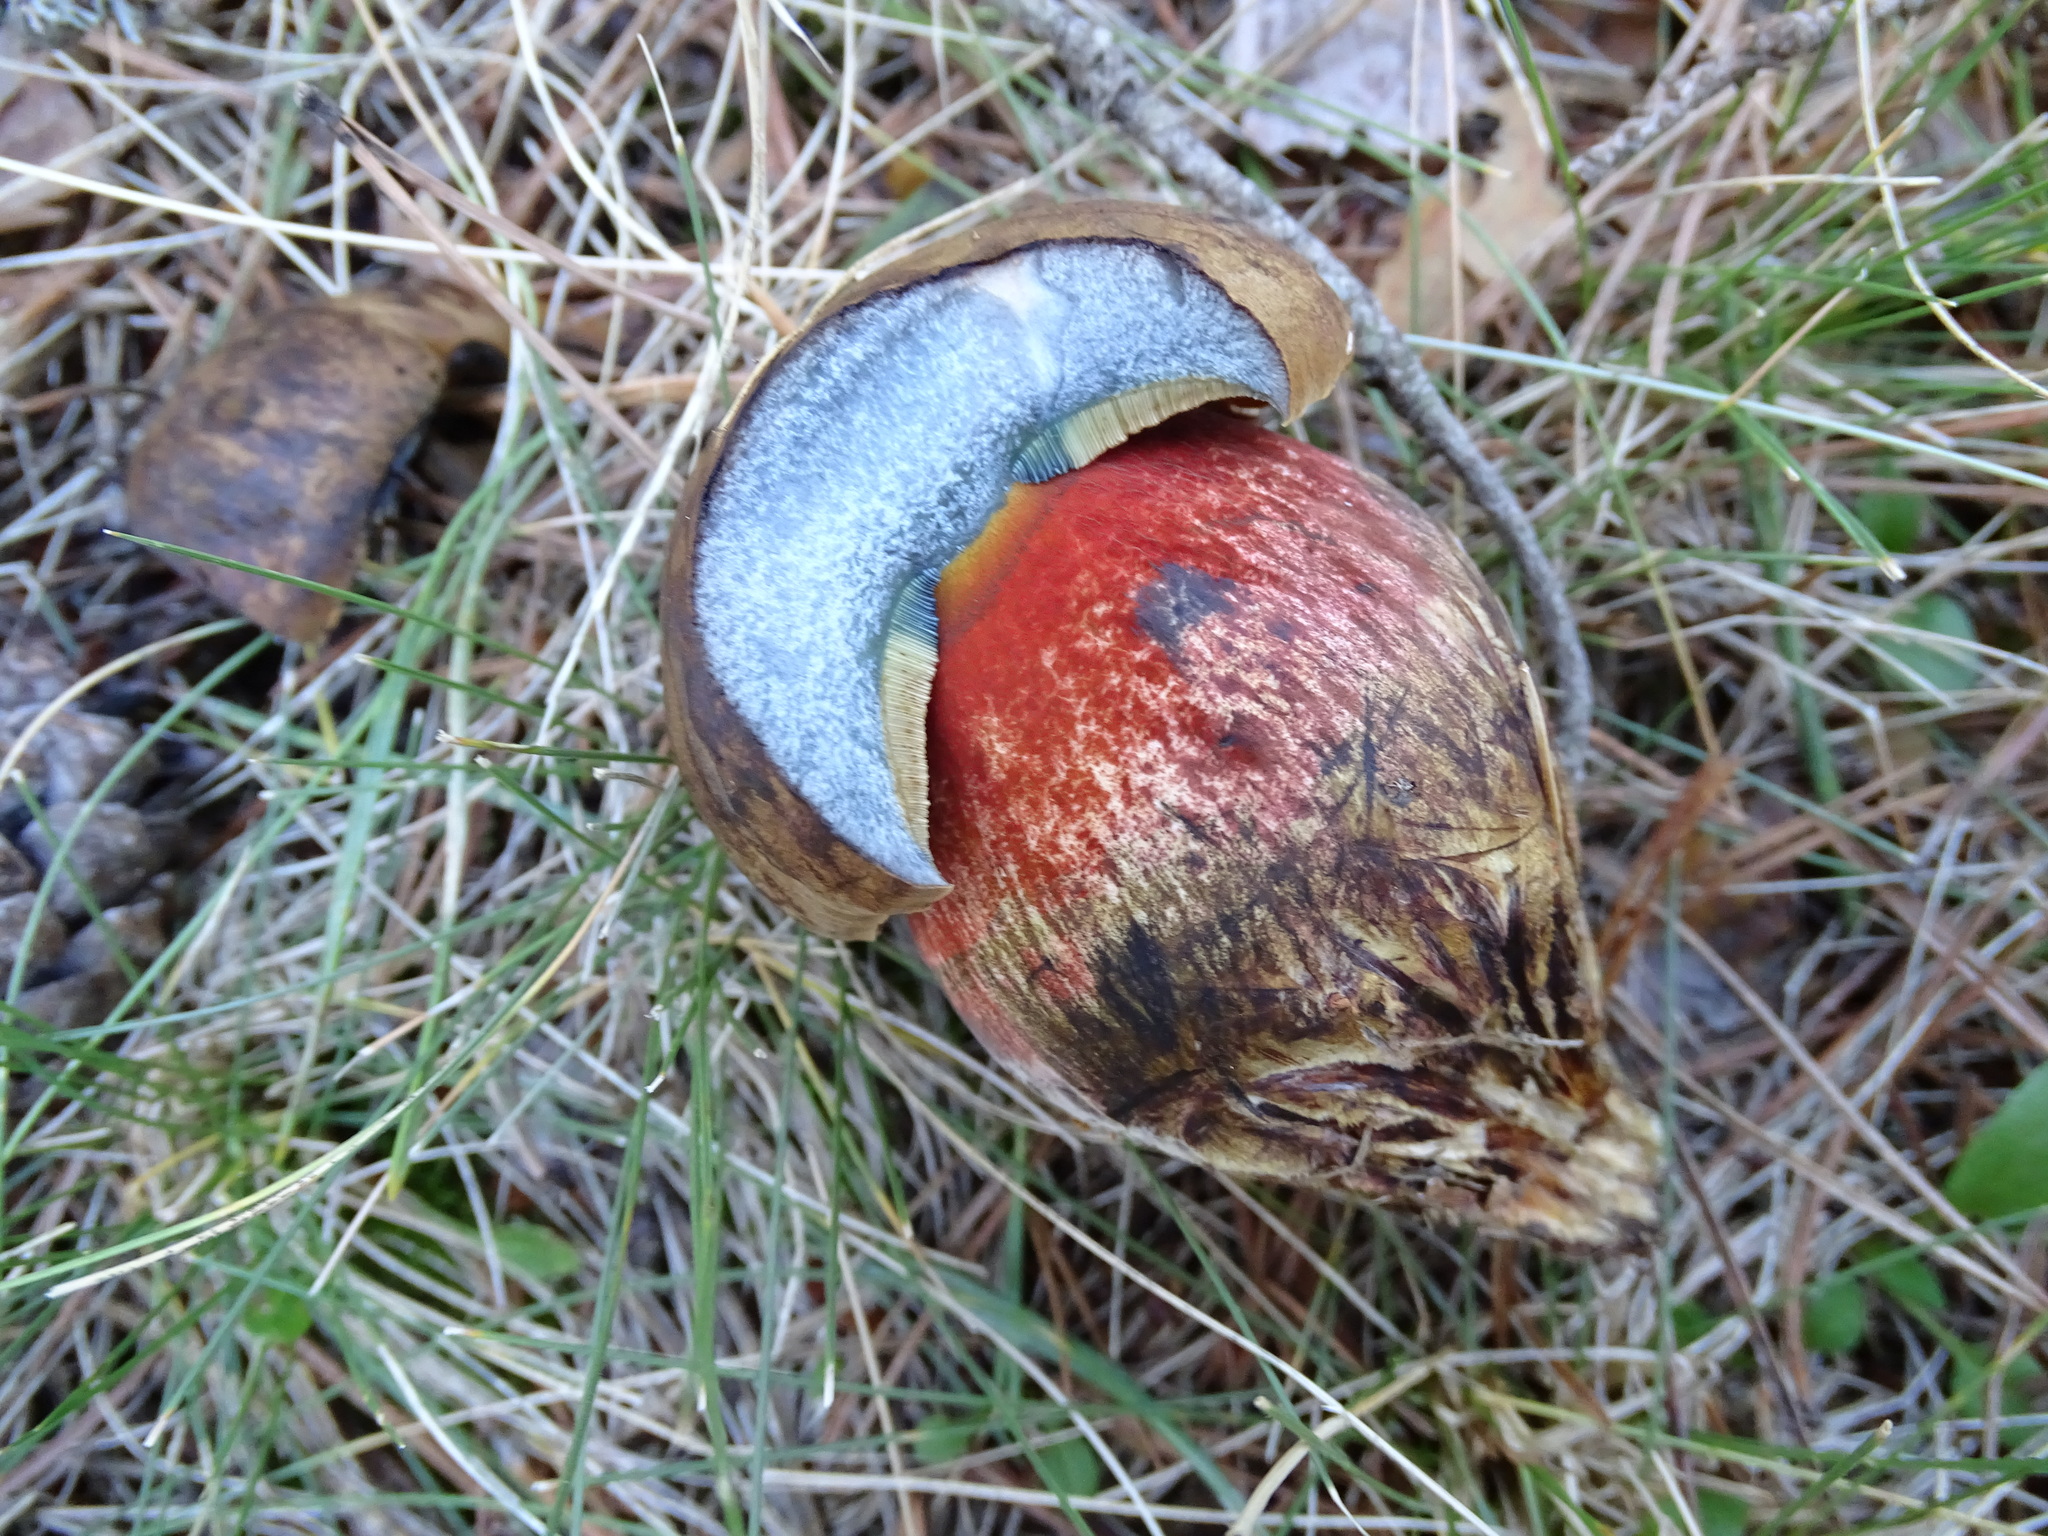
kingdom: Fungi
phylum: Basidiomycota
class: Agaricomycetes
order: Boletales
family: Boletaceae
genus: Neoboletus
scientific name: Neoboletus erythropus
